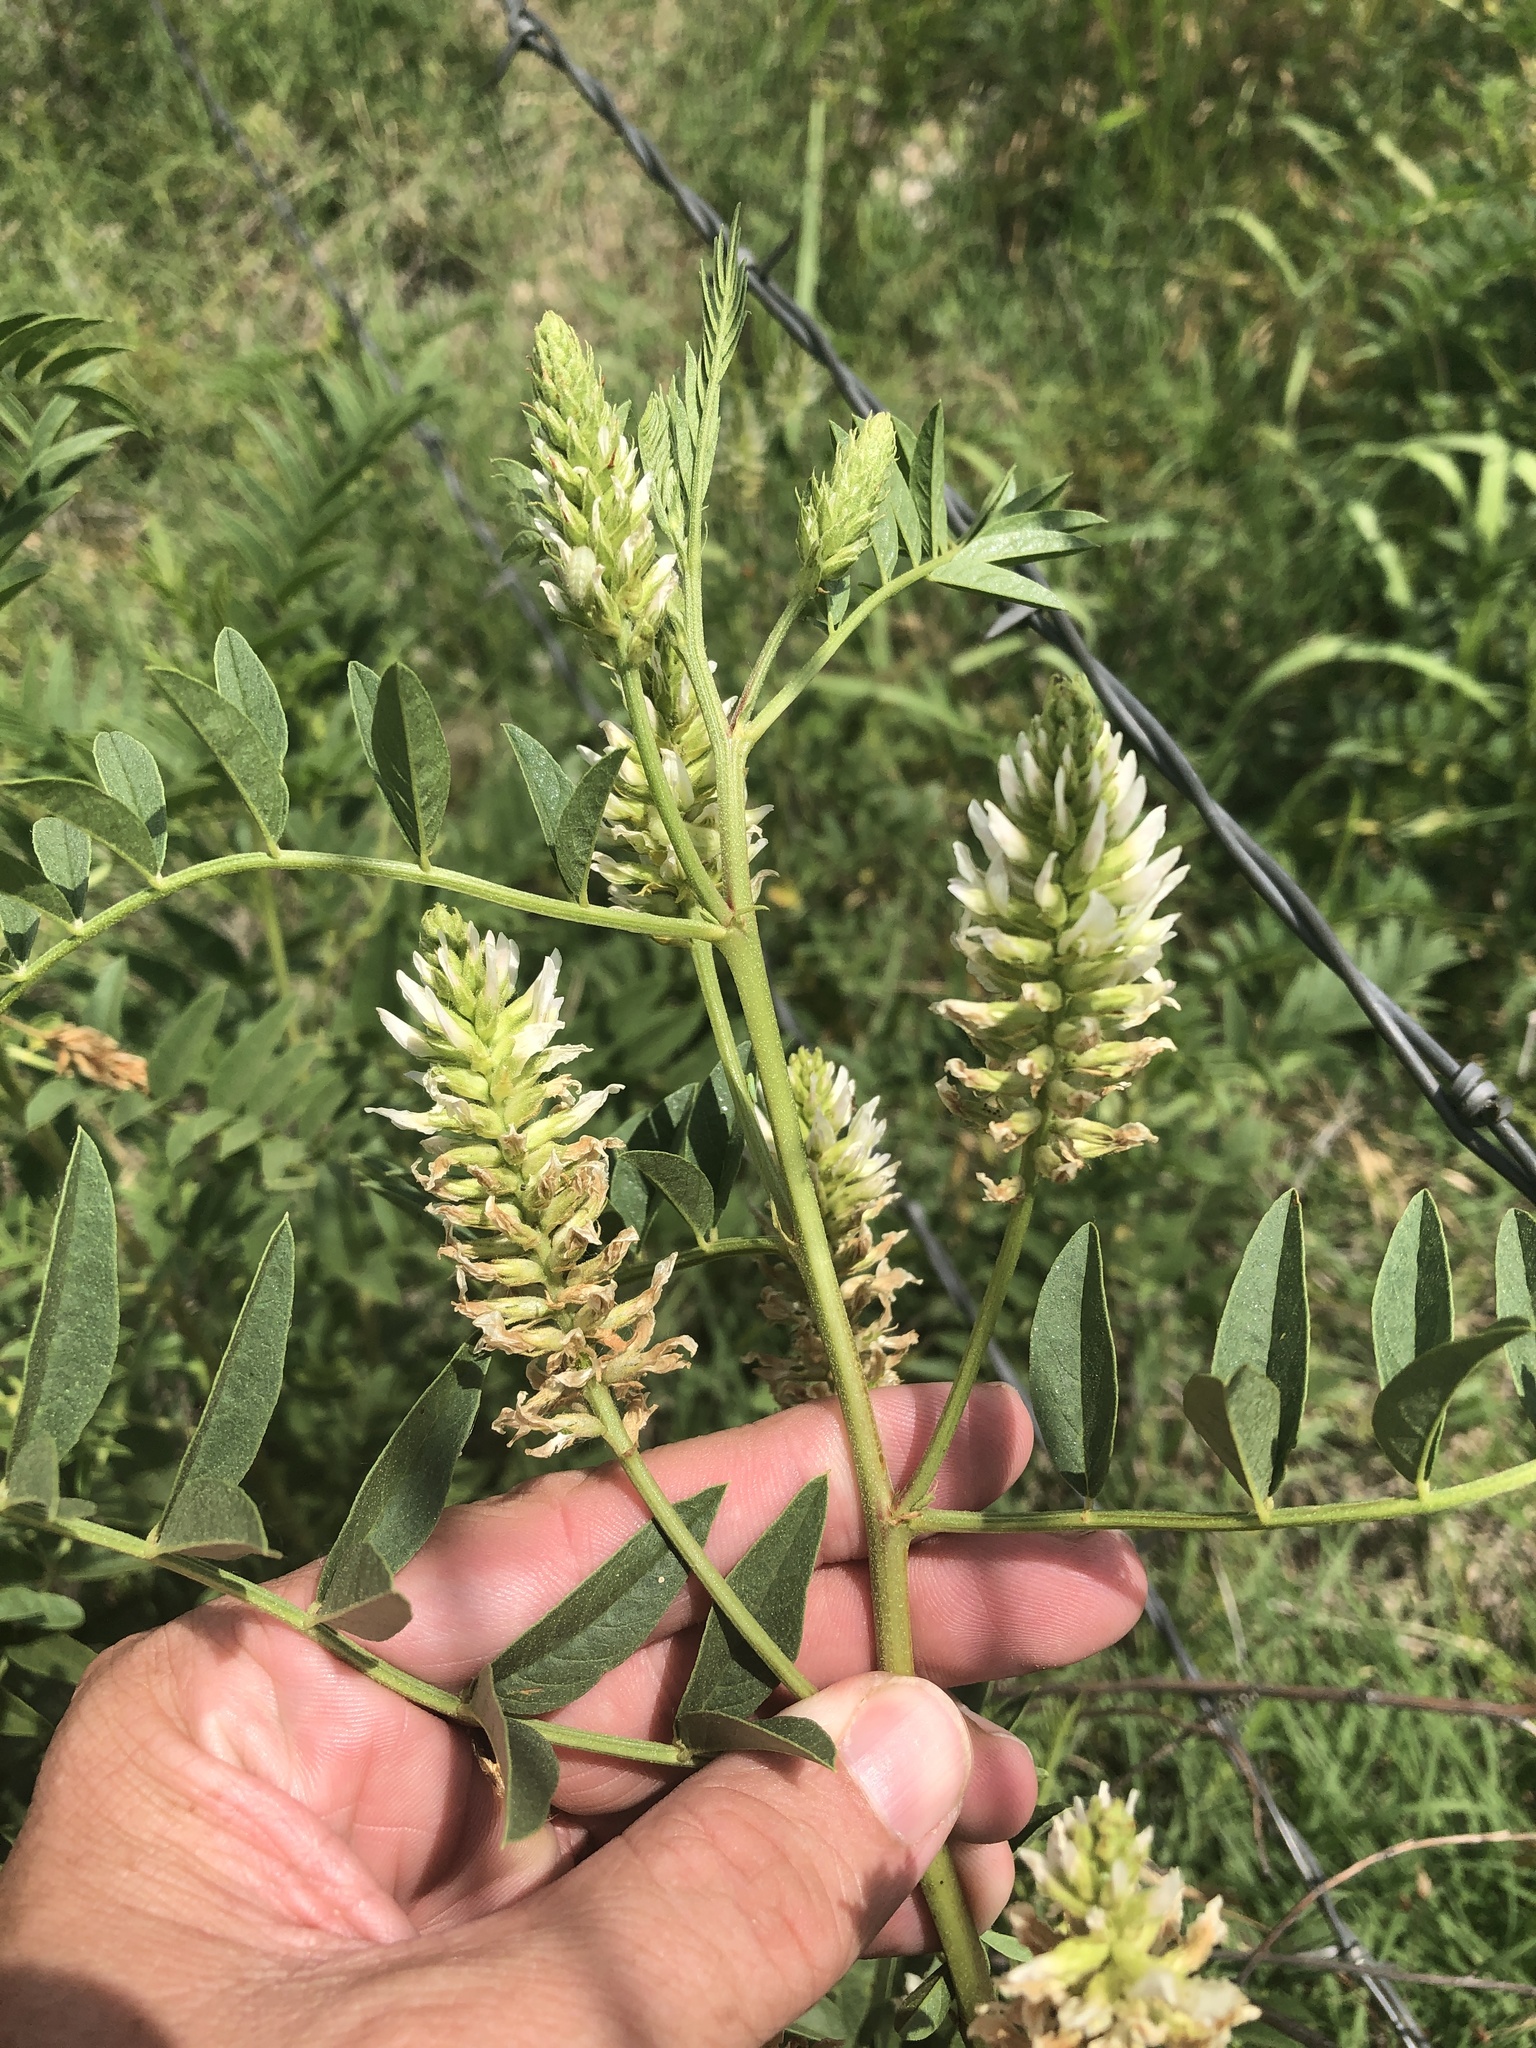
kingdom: Plantae
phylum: Tracheophyta
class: Magnoliopsida
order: Fabales
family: Fabaceae
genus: Glycyrrhiza
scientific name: Glycyrrhiza lepidota
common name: American liquorice
